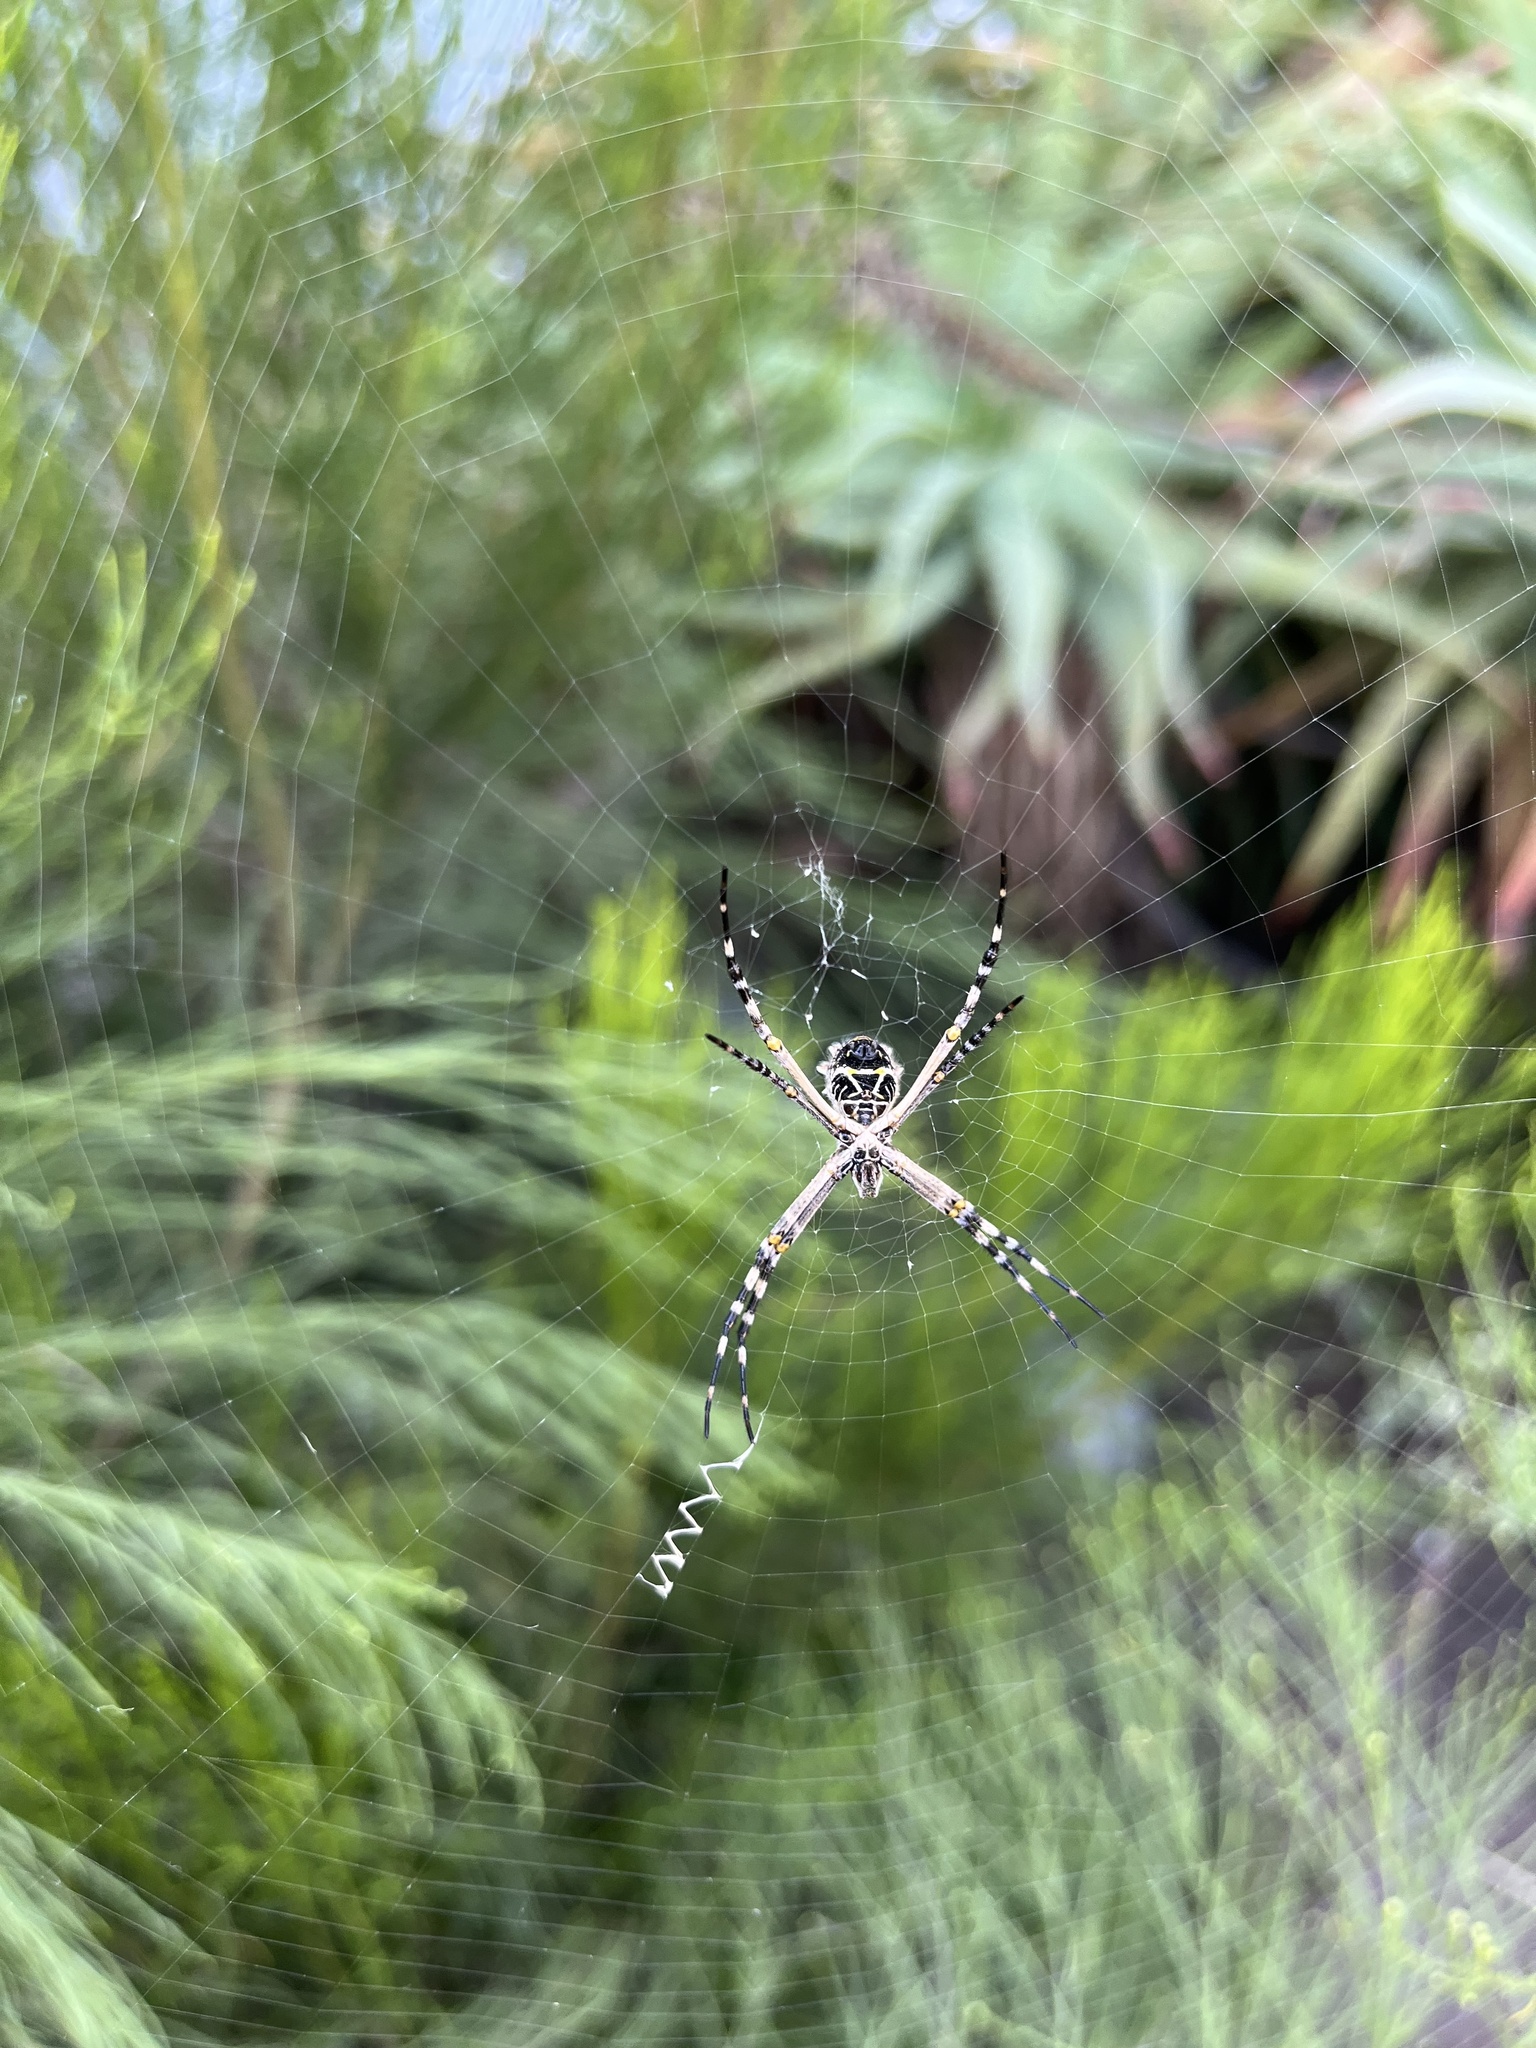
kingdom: Animalia
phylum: Arthropoda
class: Arachnida
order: Araneae
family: Araneidae
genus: Argiope
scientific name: Argiope argentata
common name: Orb weavers
